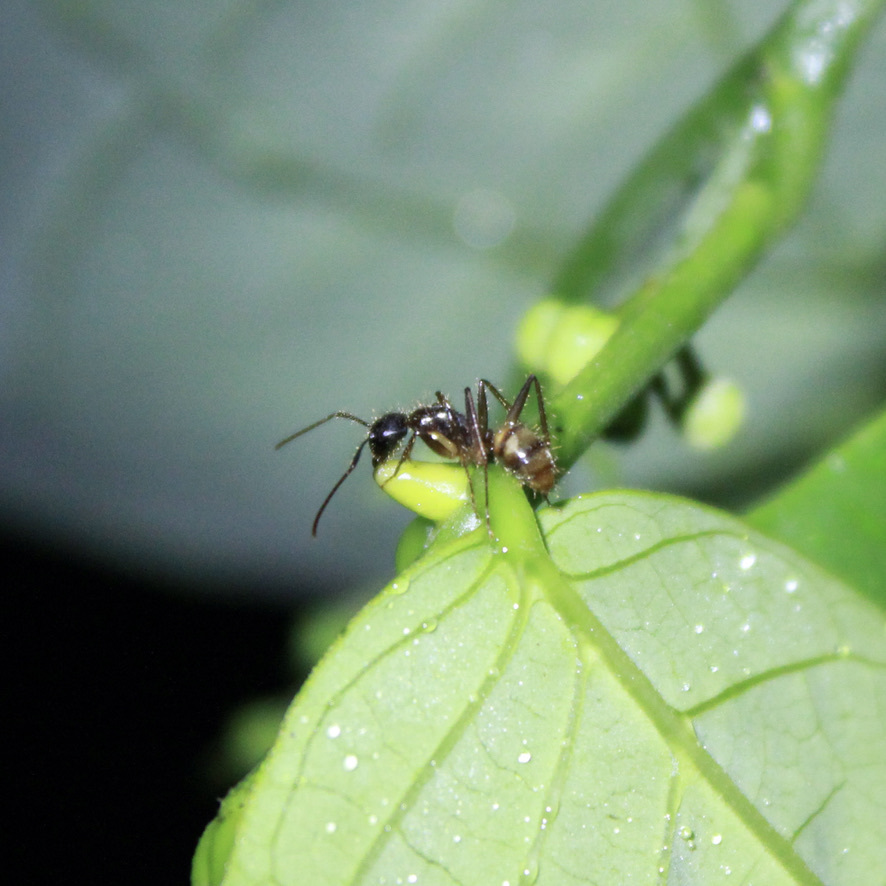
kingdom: Animalia
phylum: Arthropoda
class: Insecta
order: Hymenoptera
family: Formicidae
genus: Camponotus
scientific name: Camponotus atriceps
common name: Florida carpenter ant
